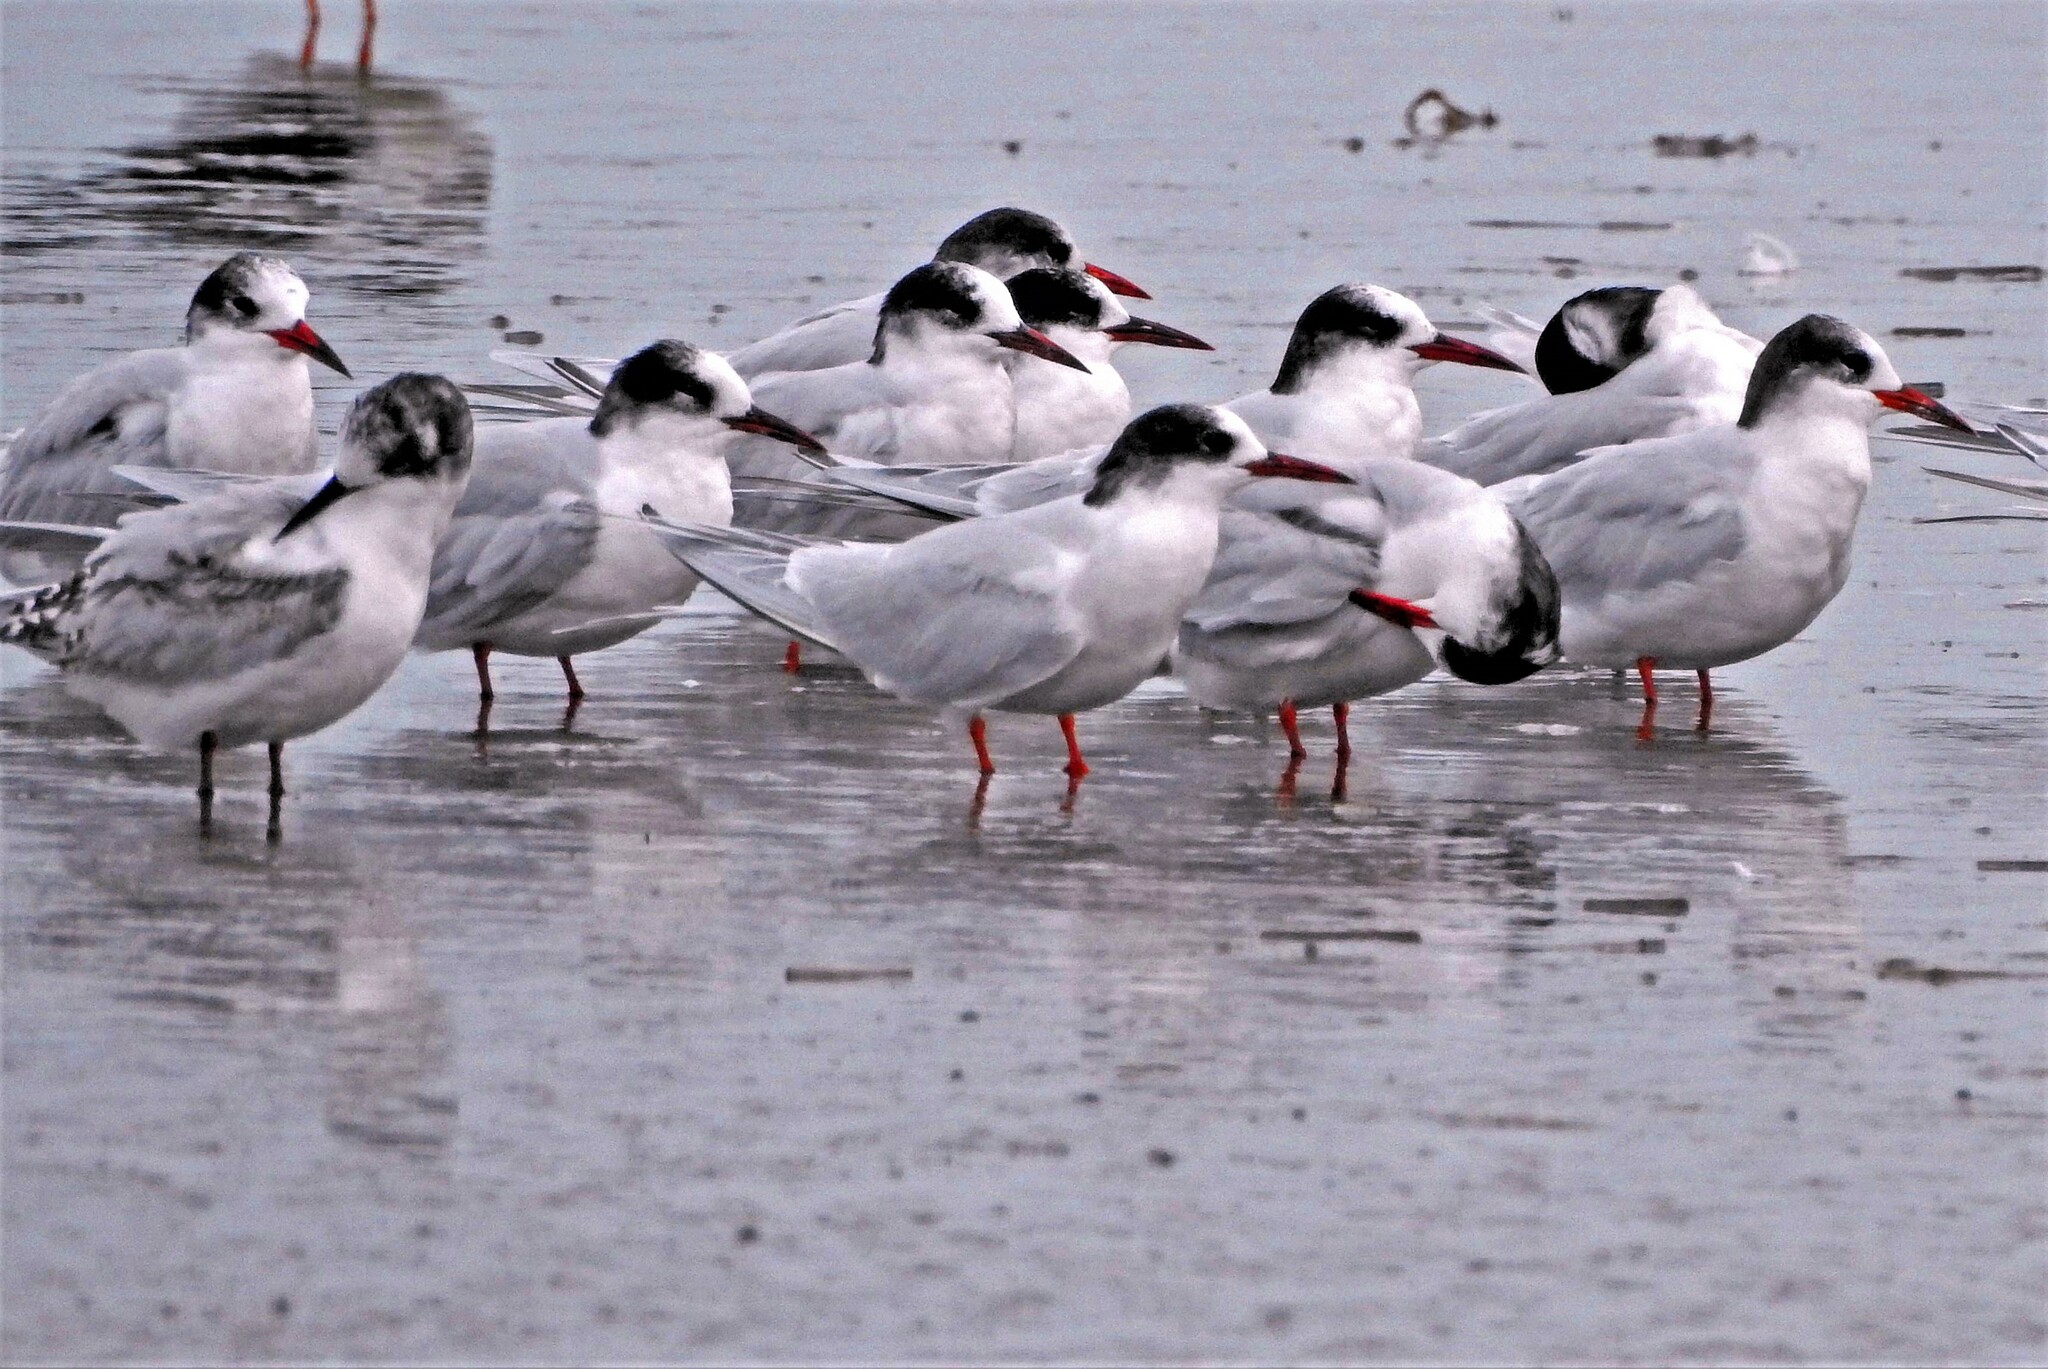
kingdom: Animalia
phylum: Chordata
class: Aves
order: Charadriiformes
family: Laridae
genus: Sterna
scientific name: Sterna hirundinacea
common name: South american tern
